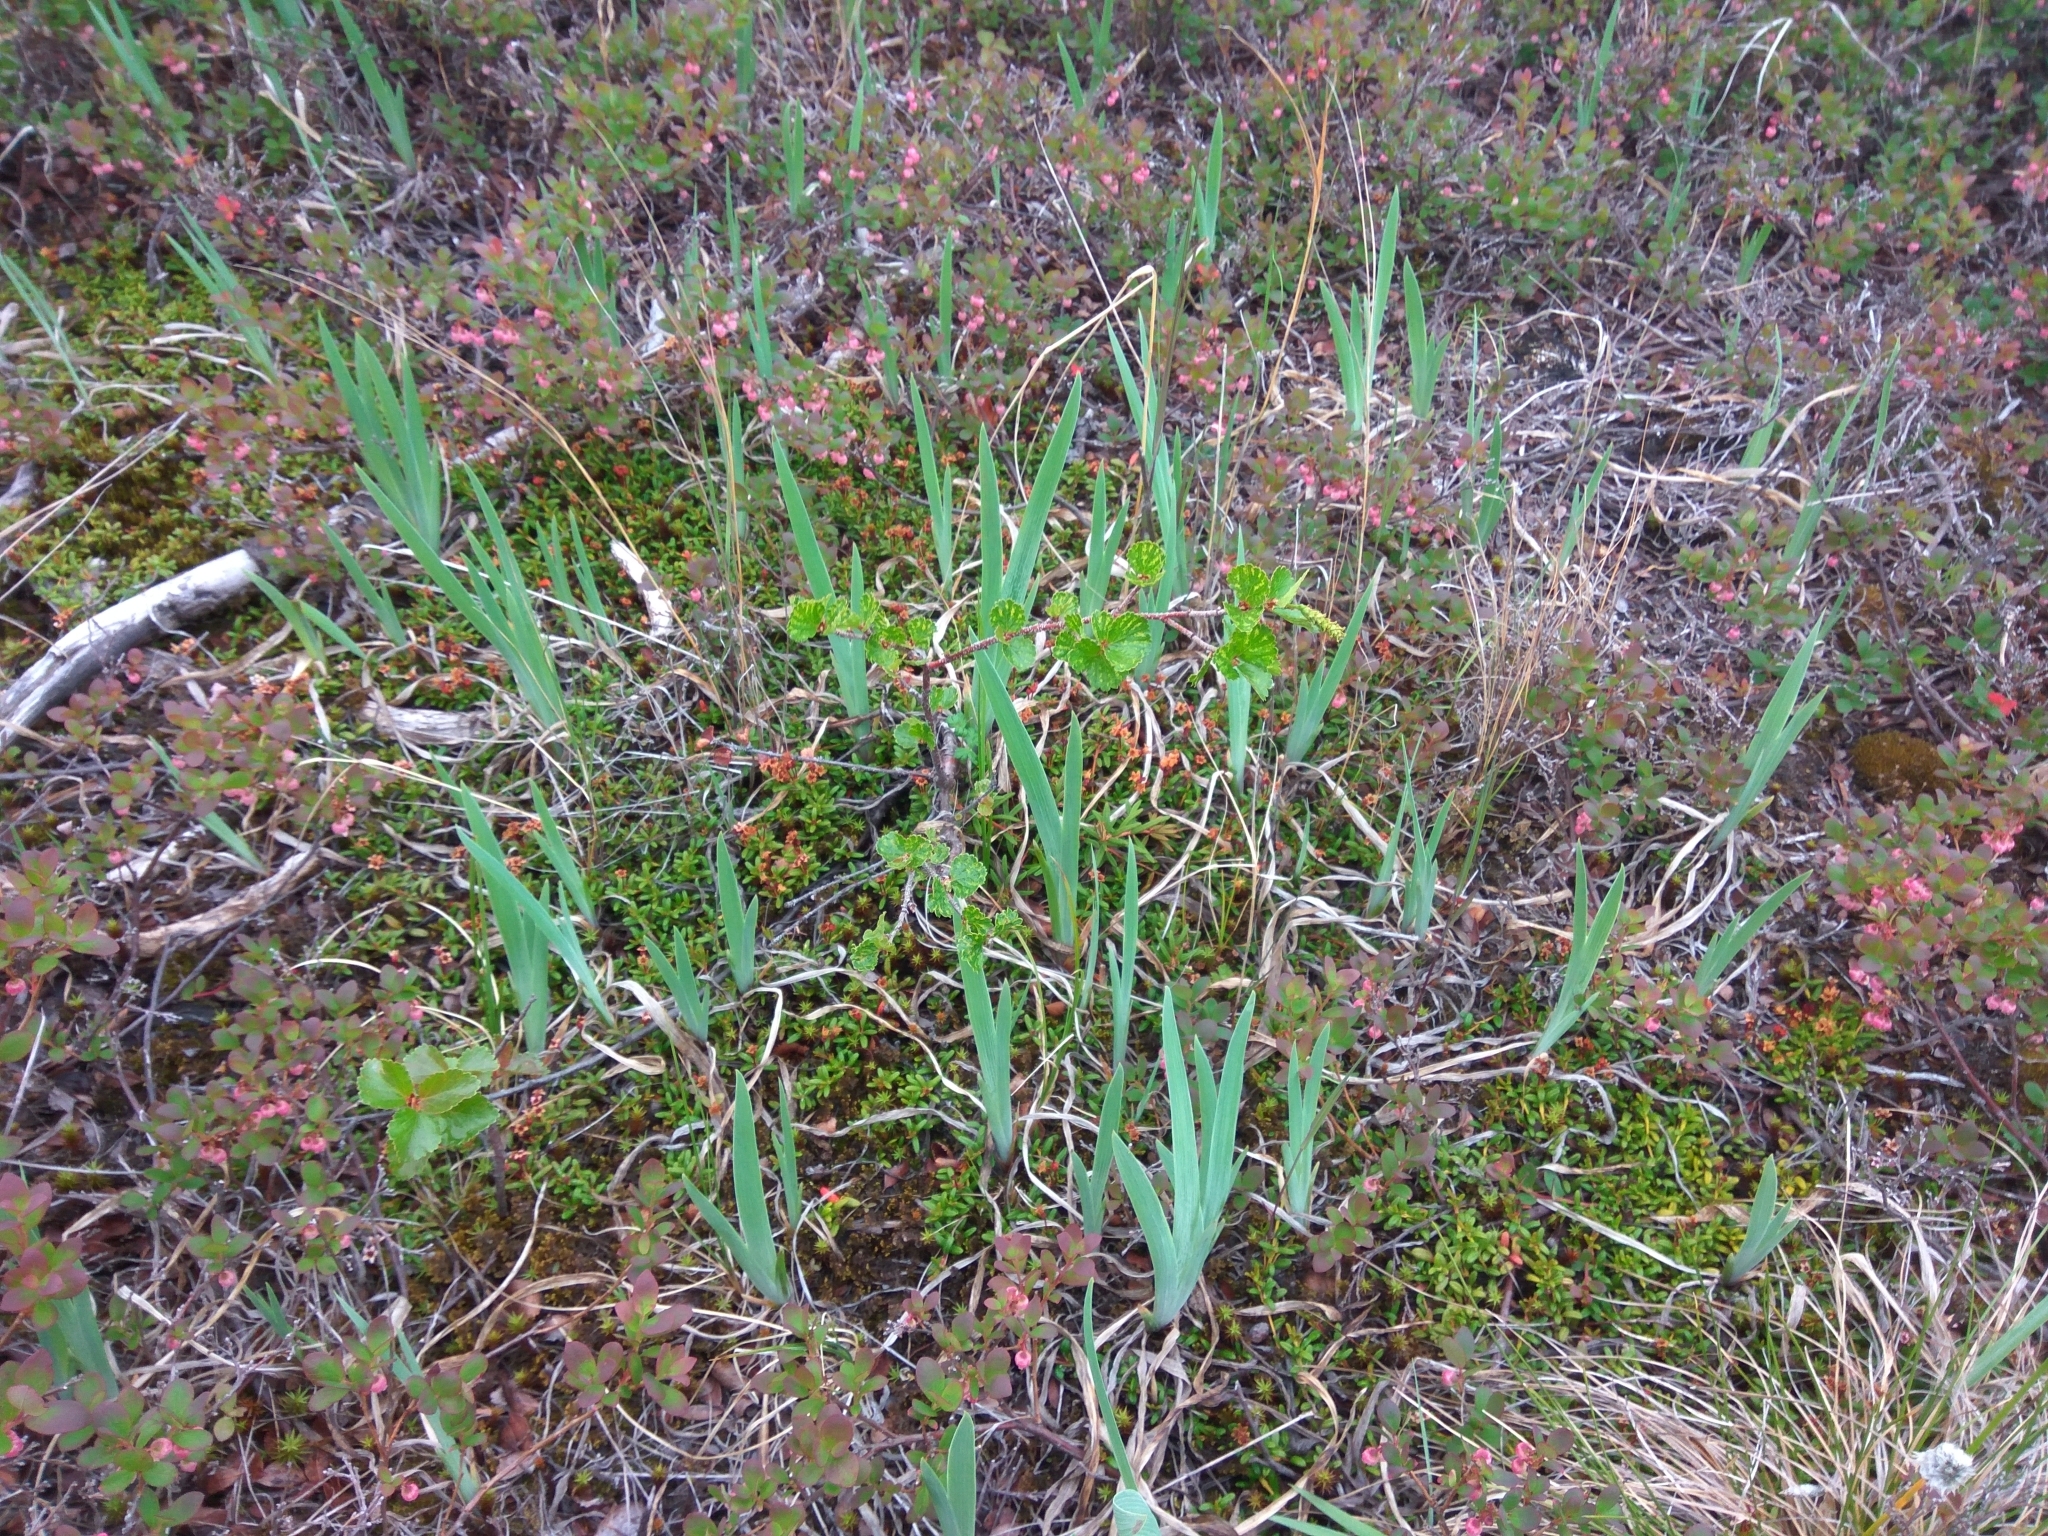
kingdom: Plantae
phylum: Tracheophyta
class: Liliopsida
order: Asparagales
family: Iridaceae
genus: Iris
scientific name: Iris setosa
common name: Arctic blue flag
